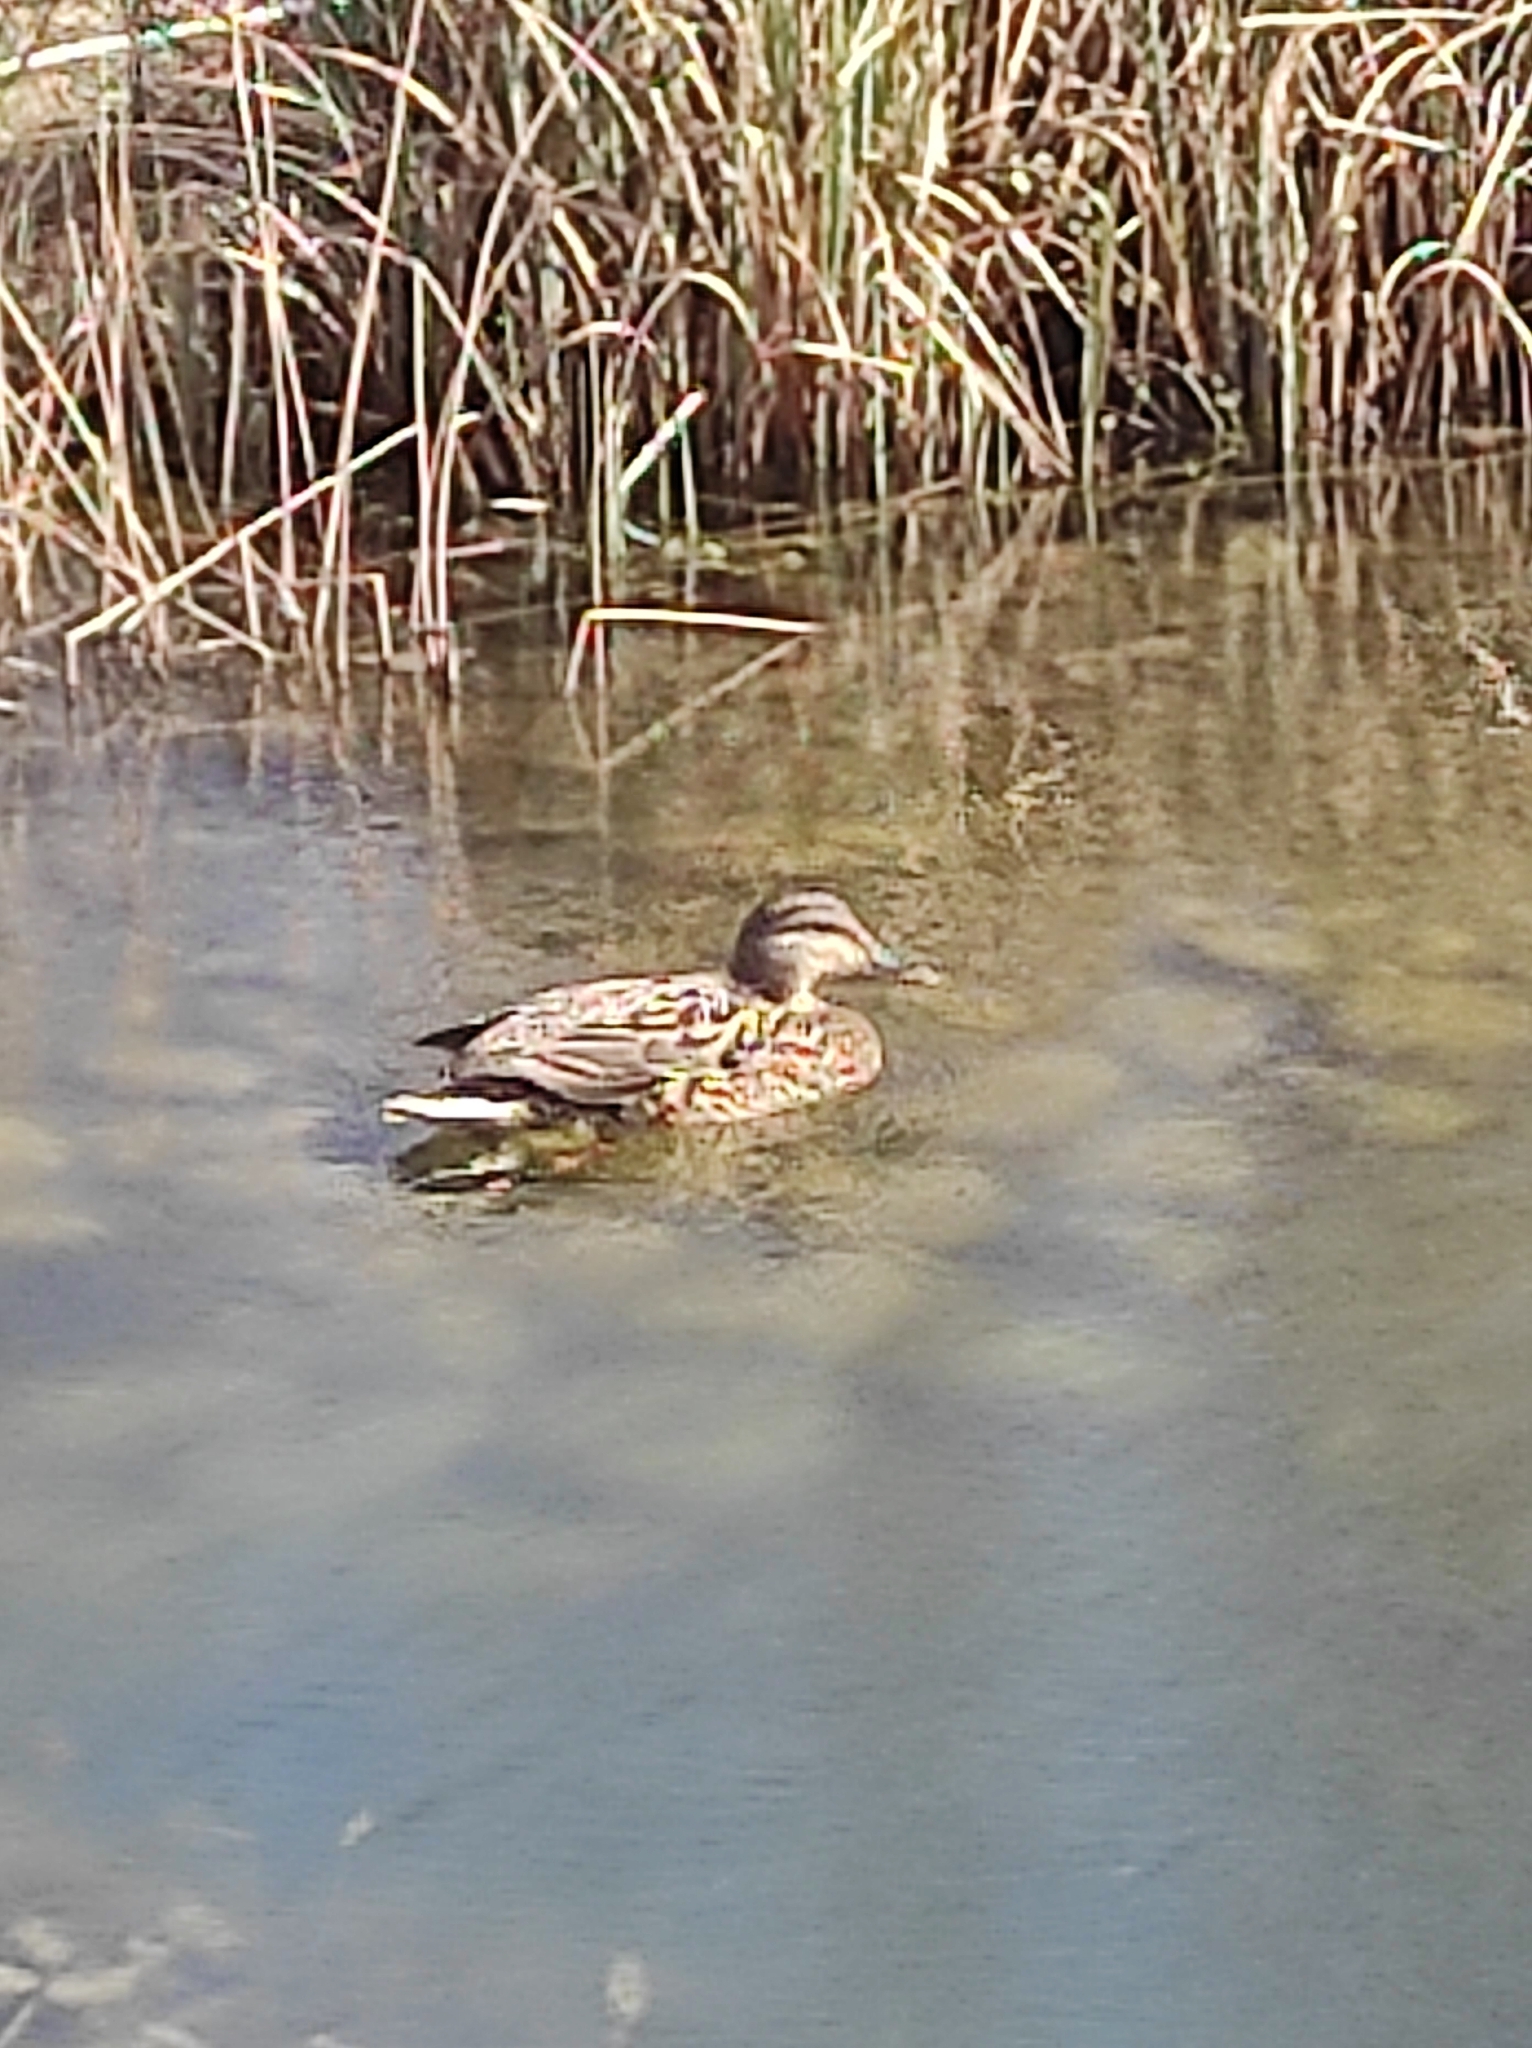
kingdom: Animalia
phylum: Chordata
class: Aves
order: Anseriformes
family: Anatidae
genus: Anas
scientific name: Anas platyrhynchos
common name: Mallard
